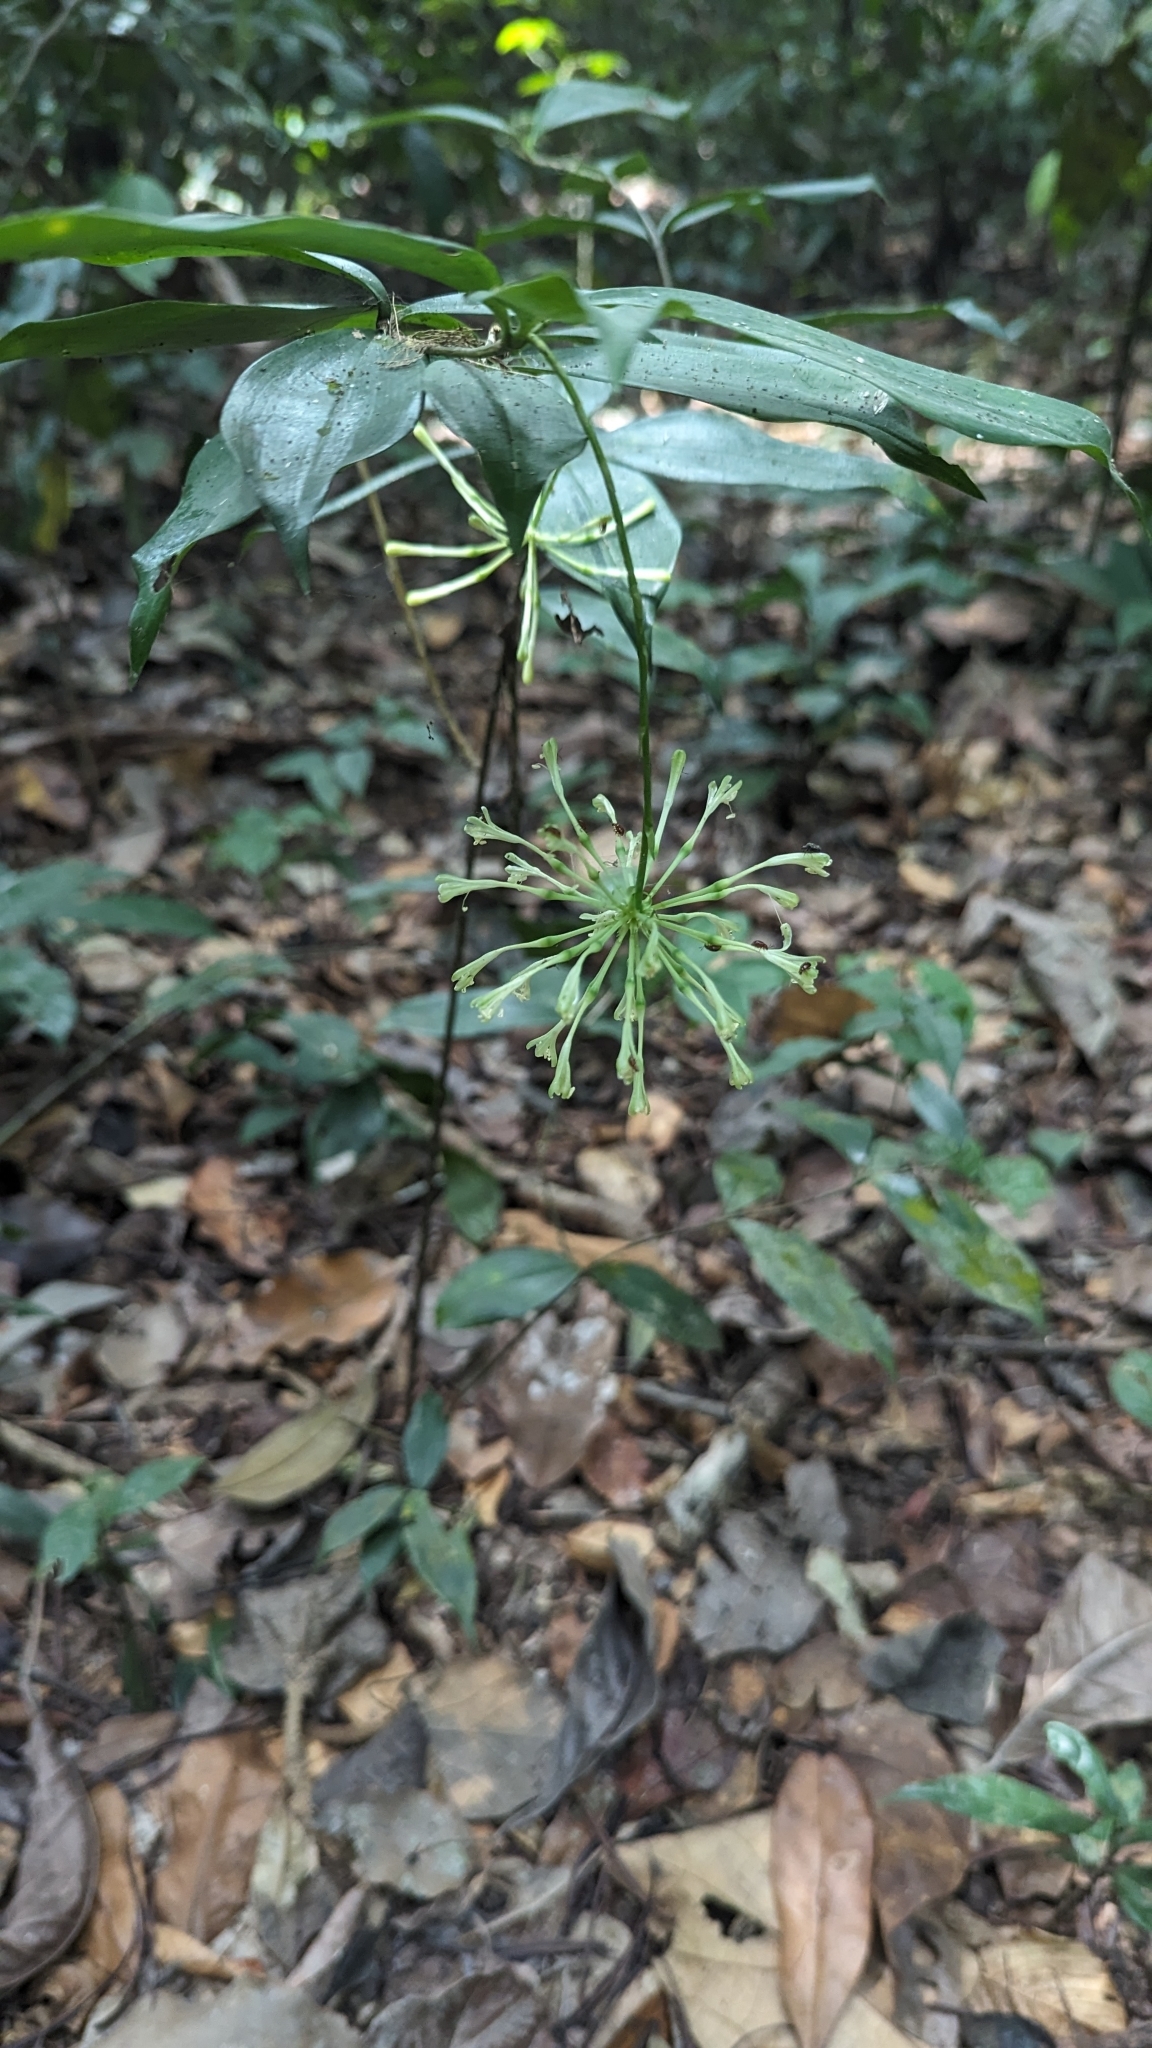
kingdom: Plantae
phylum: Tracheophyta
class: Liliopsida
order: Asparagales
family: Asparagaceae
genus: Dracaena
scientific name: Dracaena surculosa
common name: Spotted dracaena
